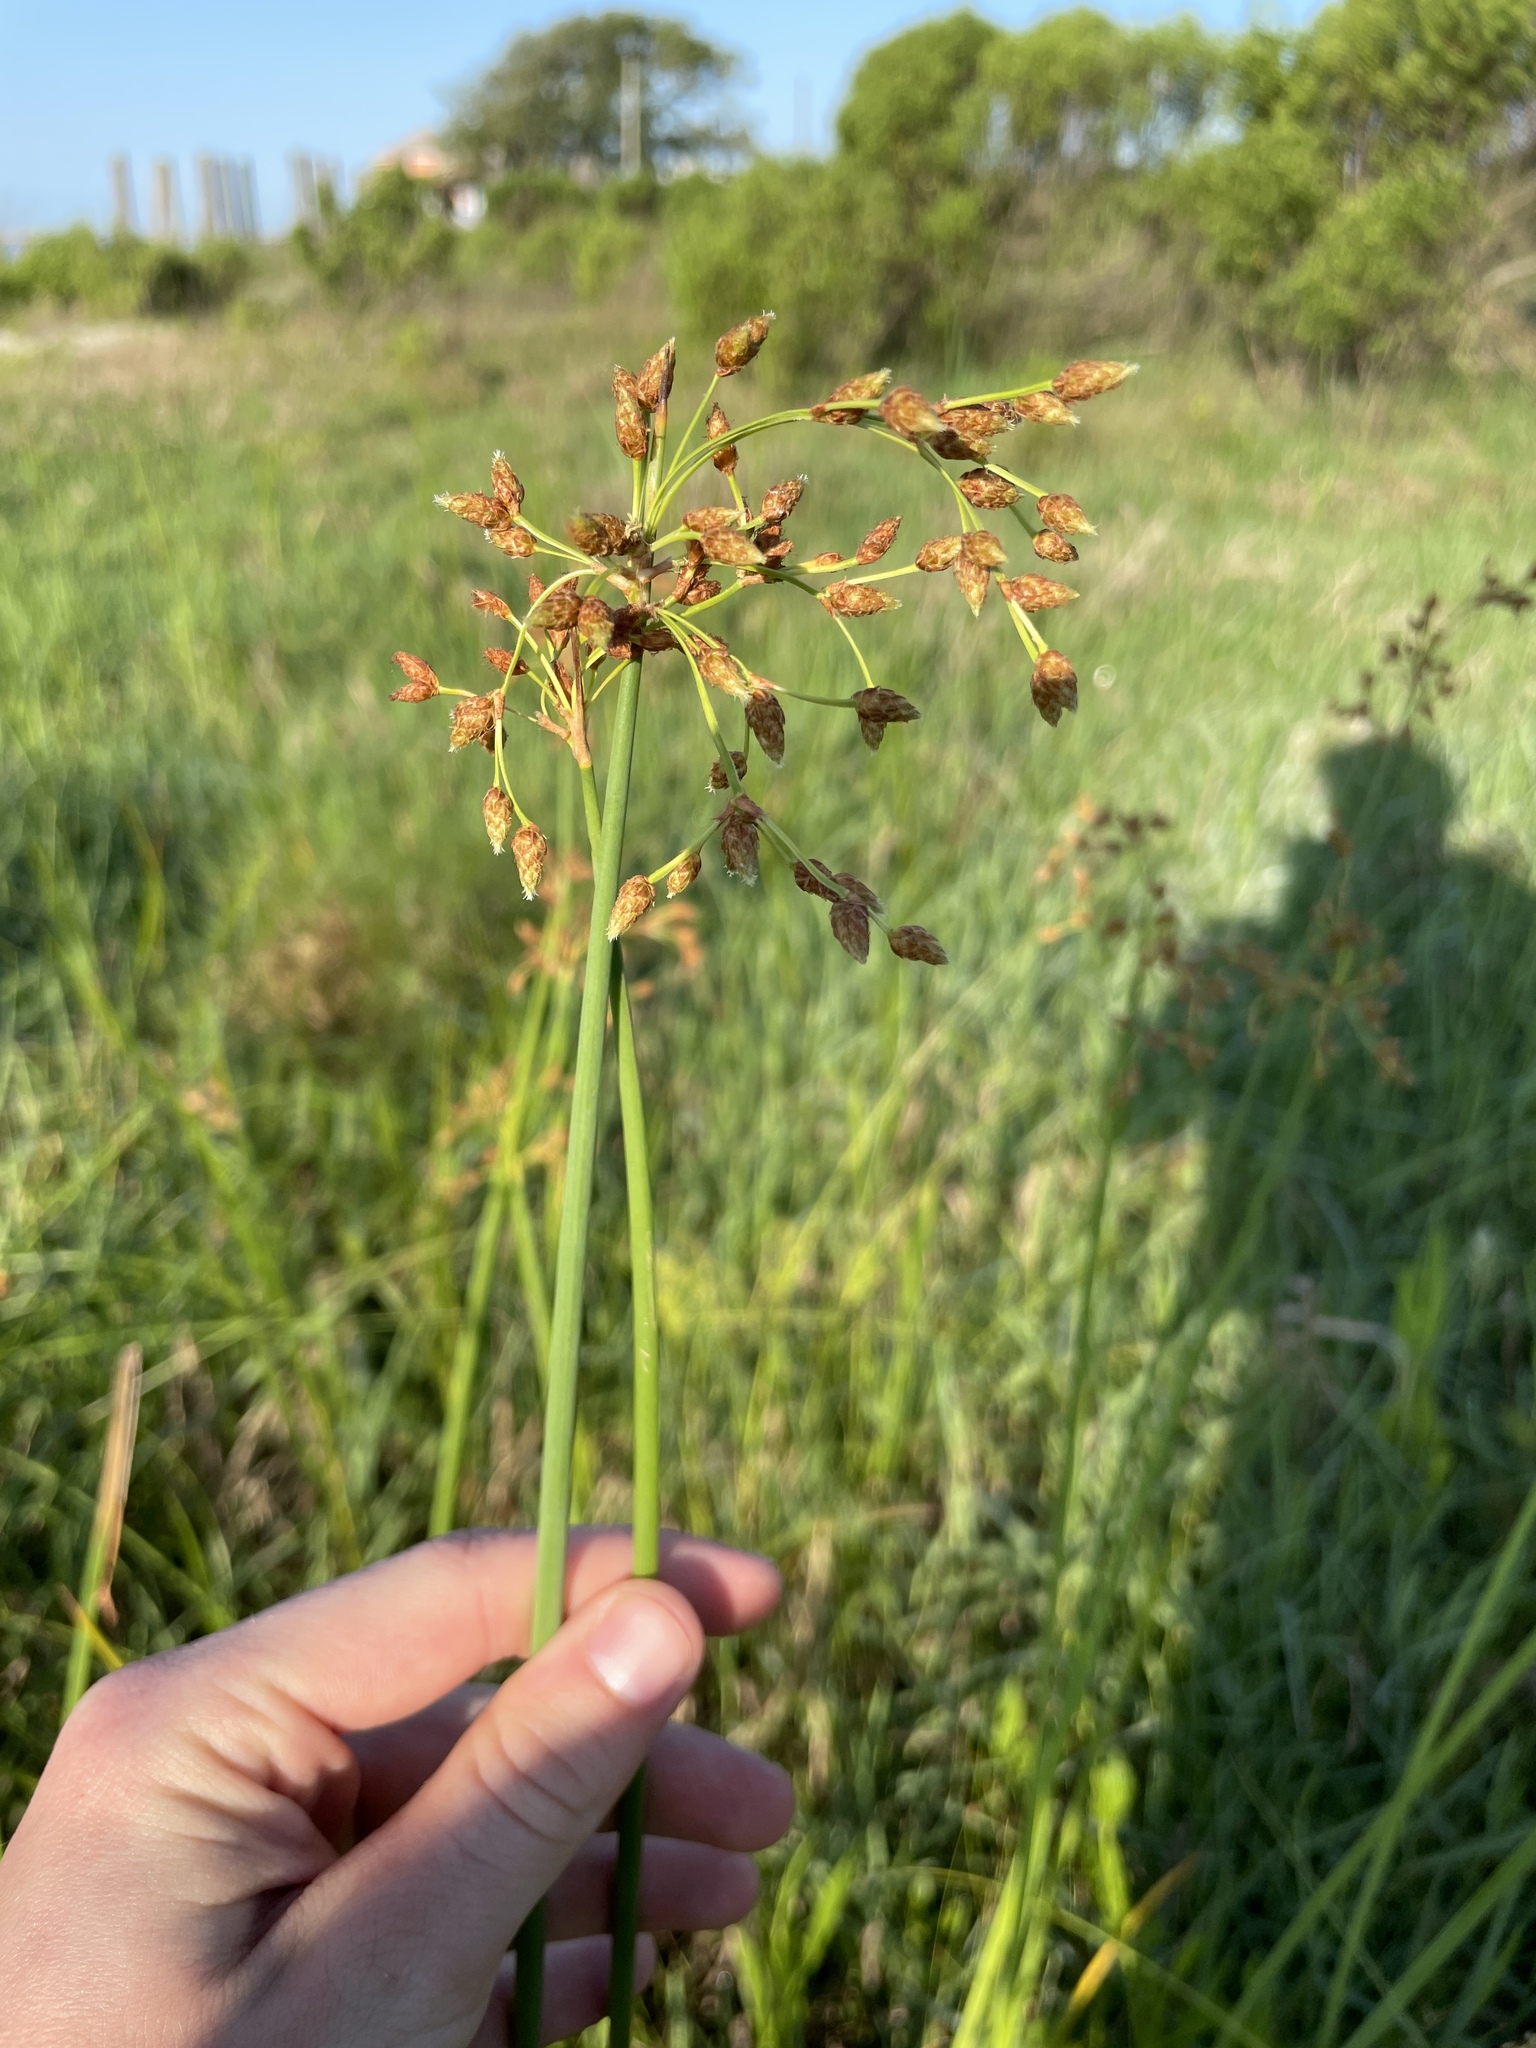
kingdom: Plantae
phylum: Tracheophyta
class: Liliopsida
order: Poales
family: Cyperaceae
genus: Schoenoplectus
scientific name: Schoenoplectus tabernaemontani
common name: Grey club-rush
